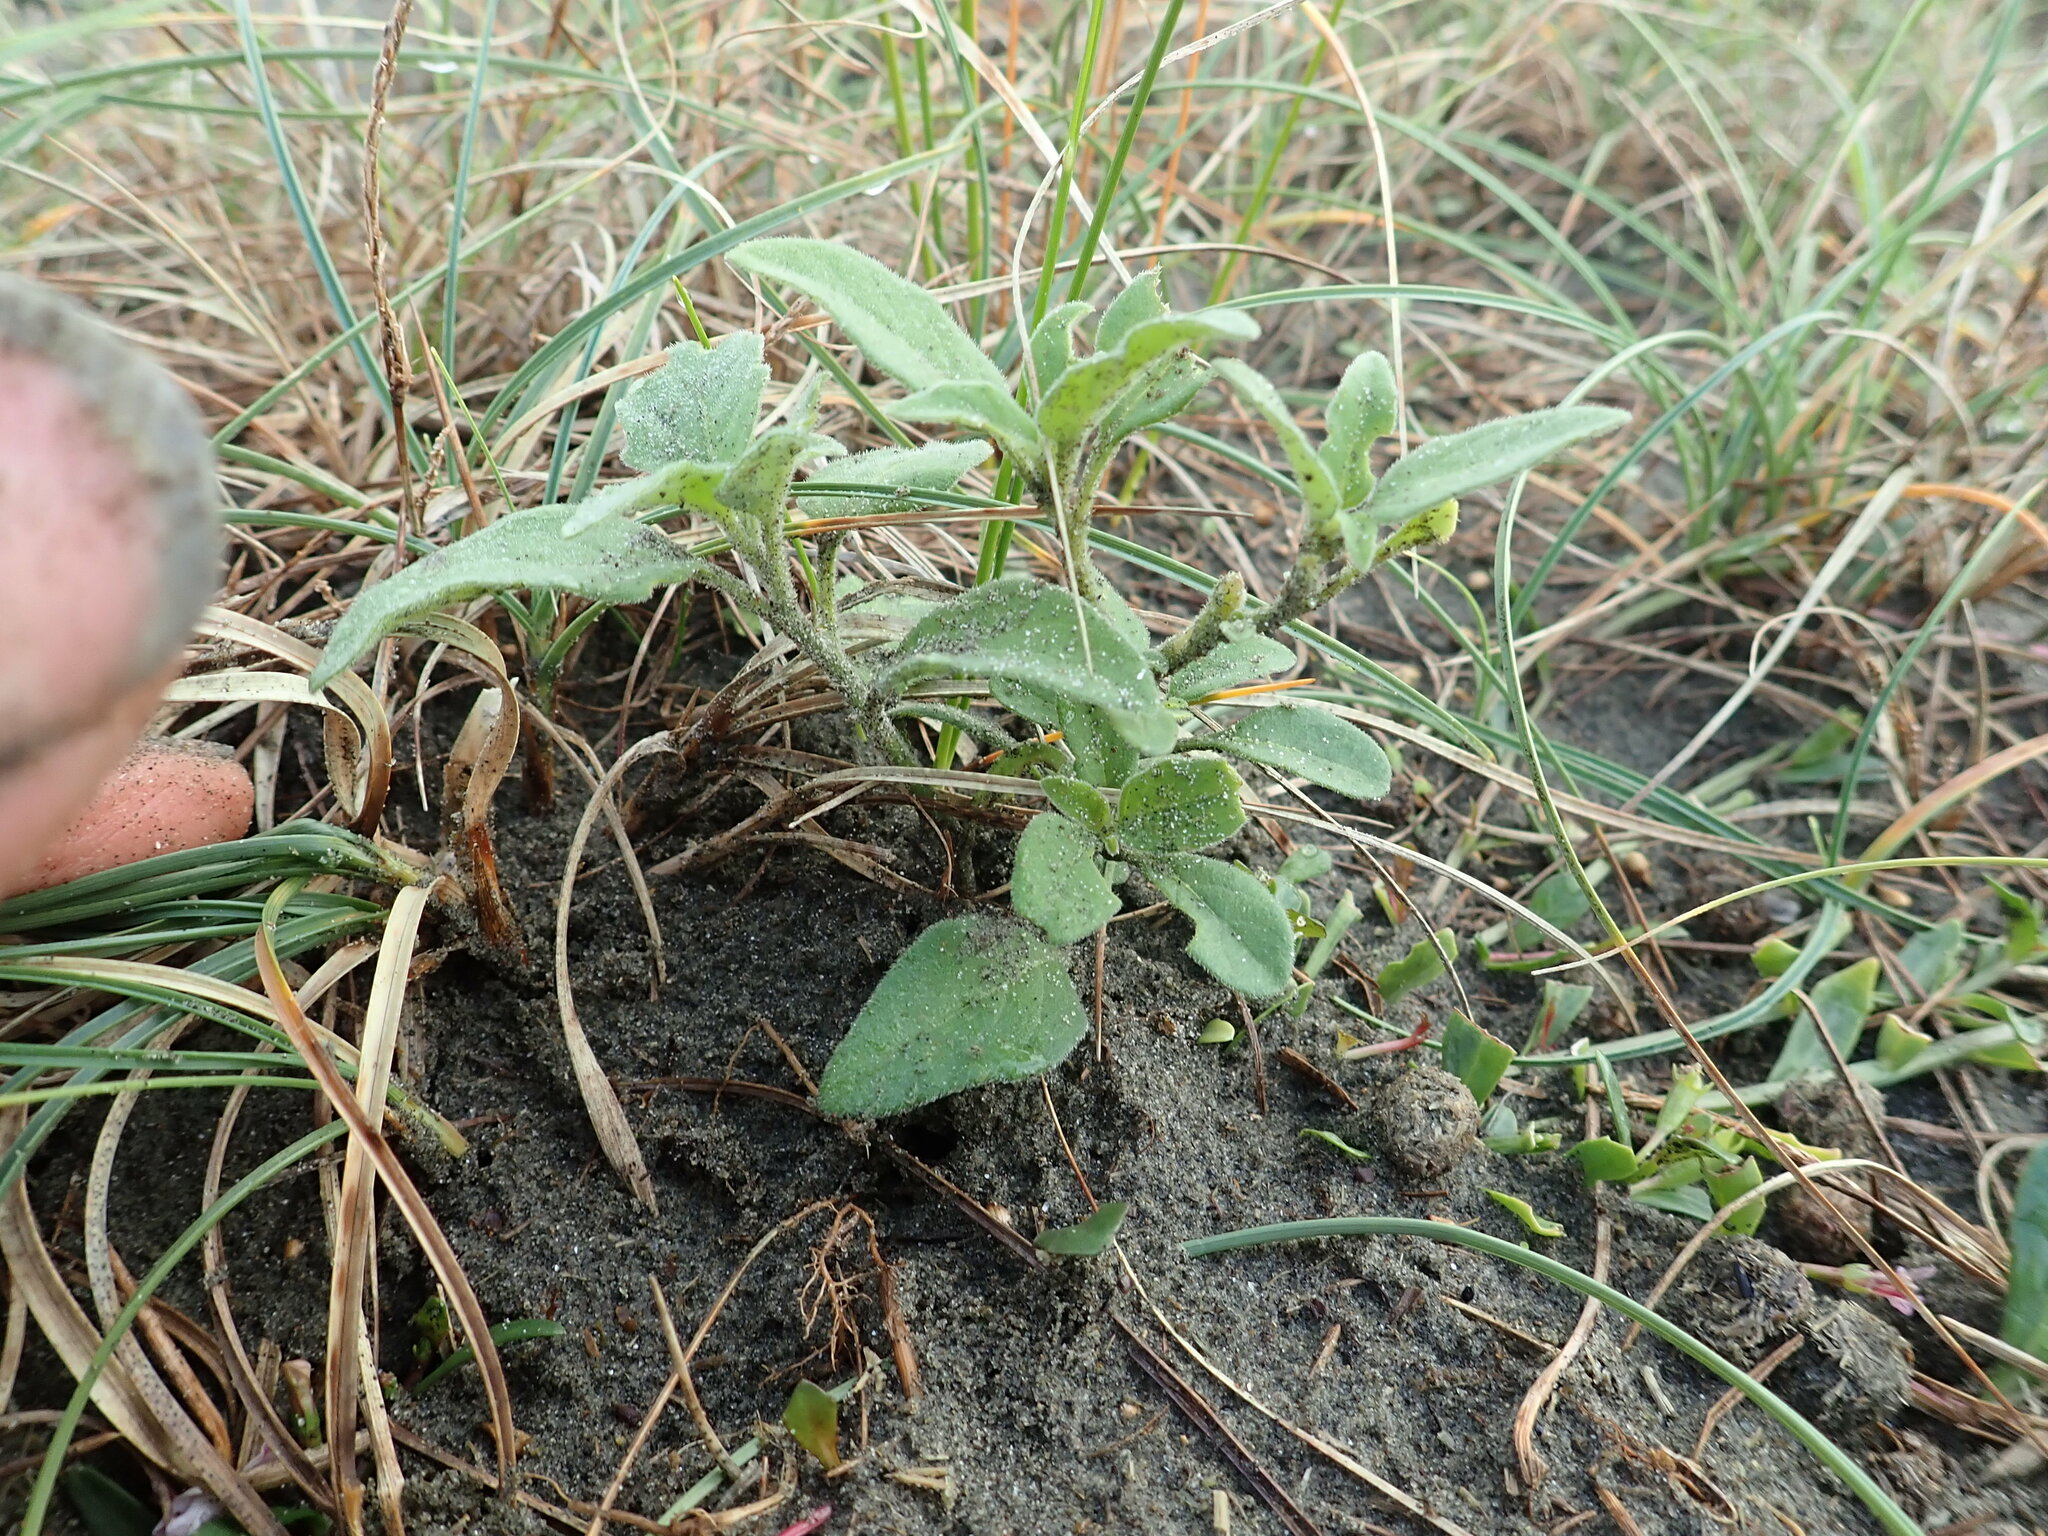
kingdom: Plantae
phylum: Tracheophyta
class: Magnoliopsida
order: Solanales
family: Solanaceae
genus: Solanum
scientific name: Solanum chenopodioides
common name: Tall nightshade
